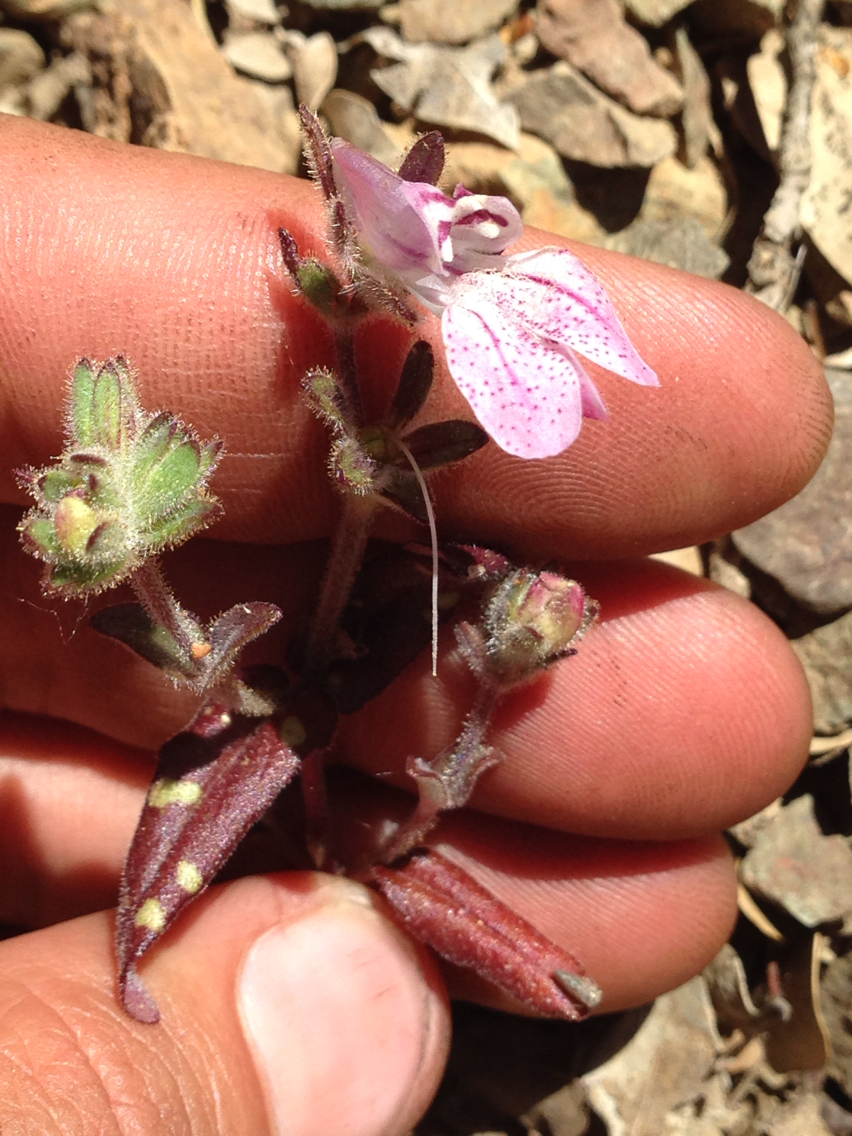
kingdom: Plantae
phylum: Tracheophyta
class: Magnoliopsida
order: Lamiales
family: Plantaginaceae
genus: Collinsia
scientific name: Collinsia tinctoria
